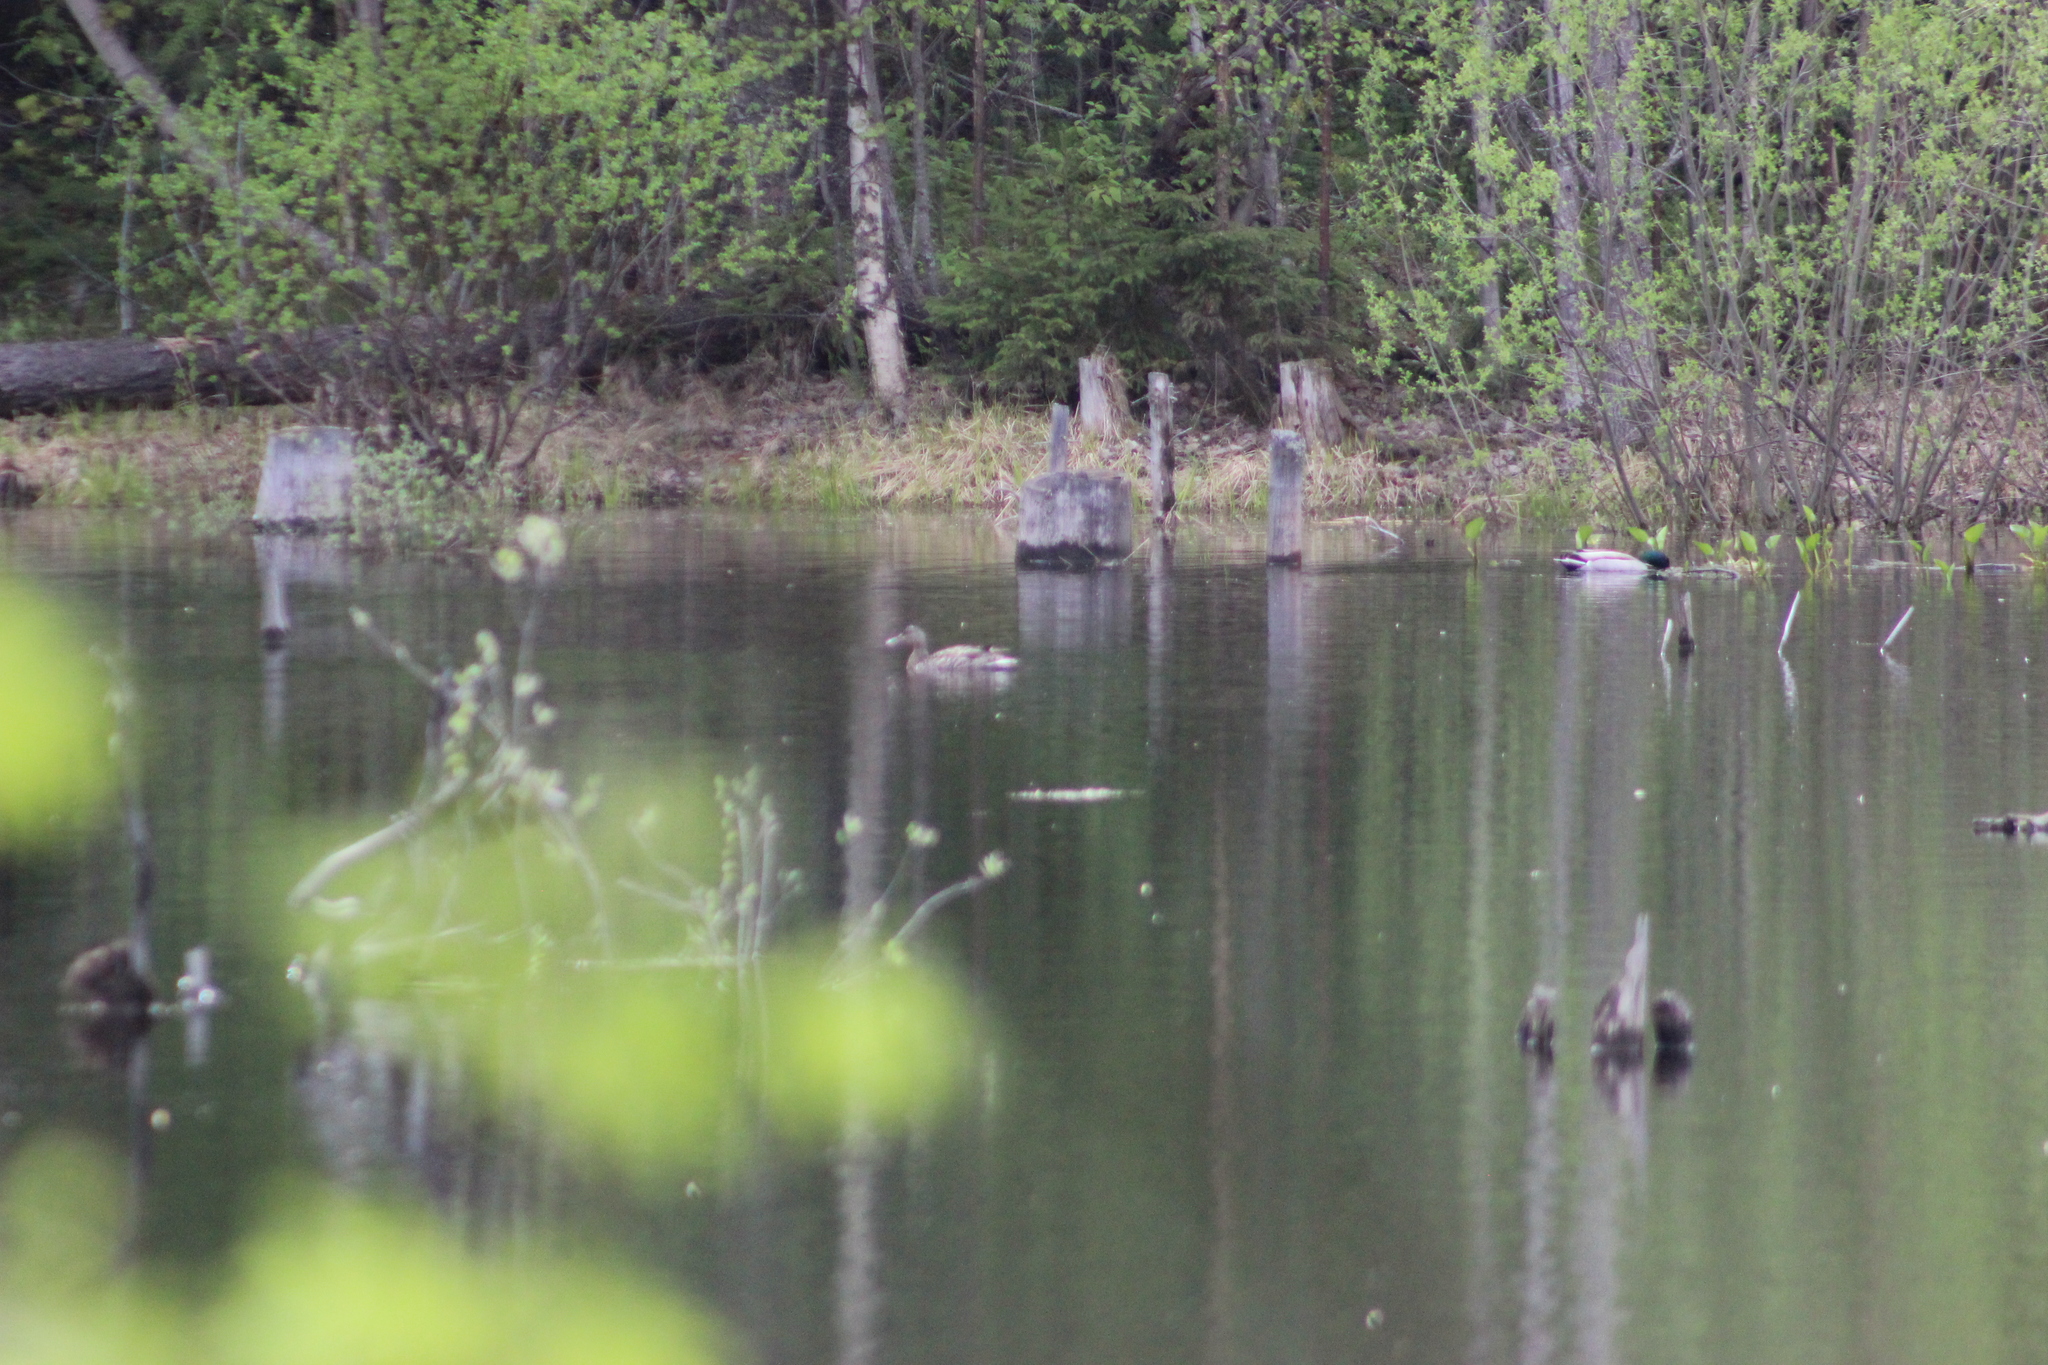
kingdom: Animalia
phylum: Chordata
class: Aves
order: Anseriformes
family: Anatidae
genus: Anas
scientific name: Anas platyrhynchos
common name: Mallard
